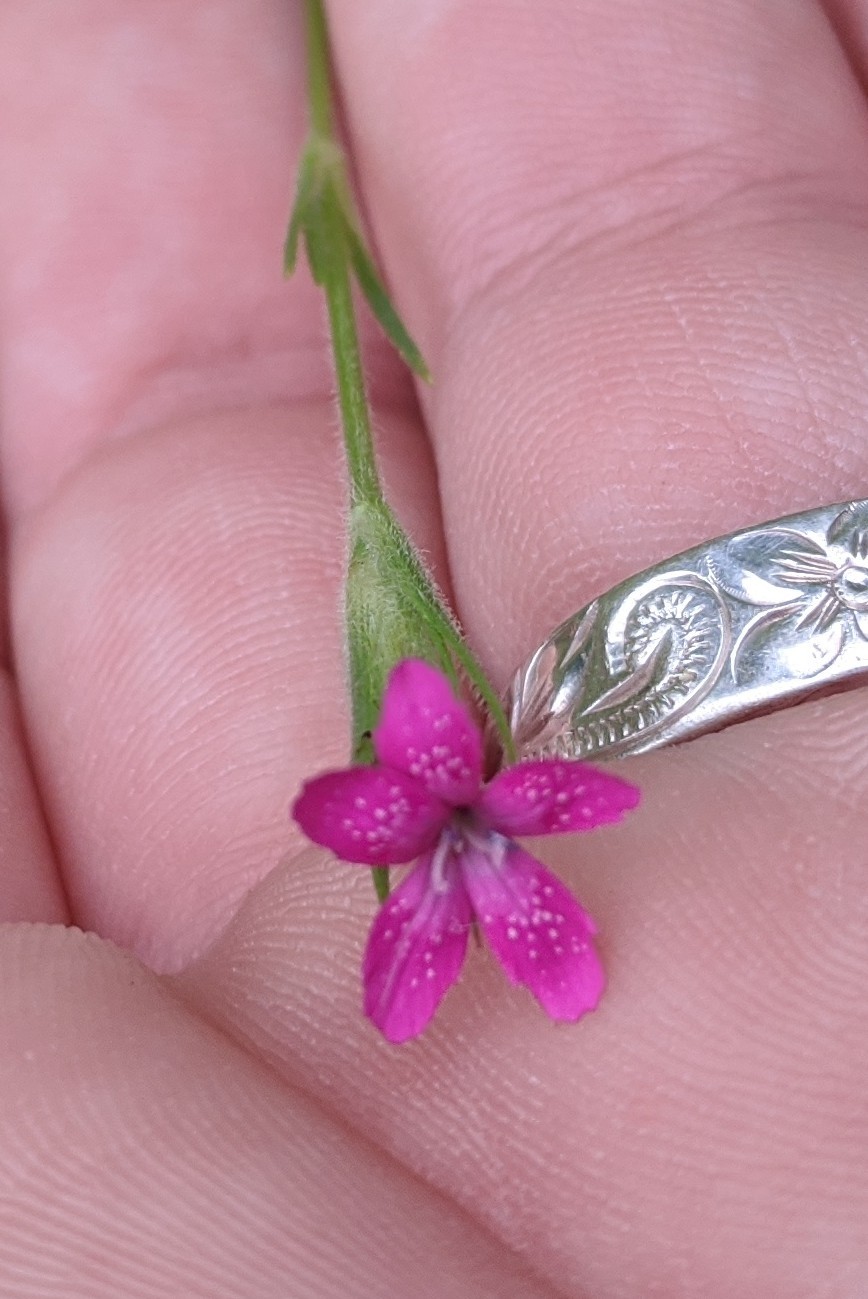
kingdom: Plantae
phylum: Tracheophyta
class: Magnoliopsida
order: Caryophyllales
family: Caryophyllaceae
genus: Dianthus
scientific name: Dianthus armeria
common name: Deptford pink
